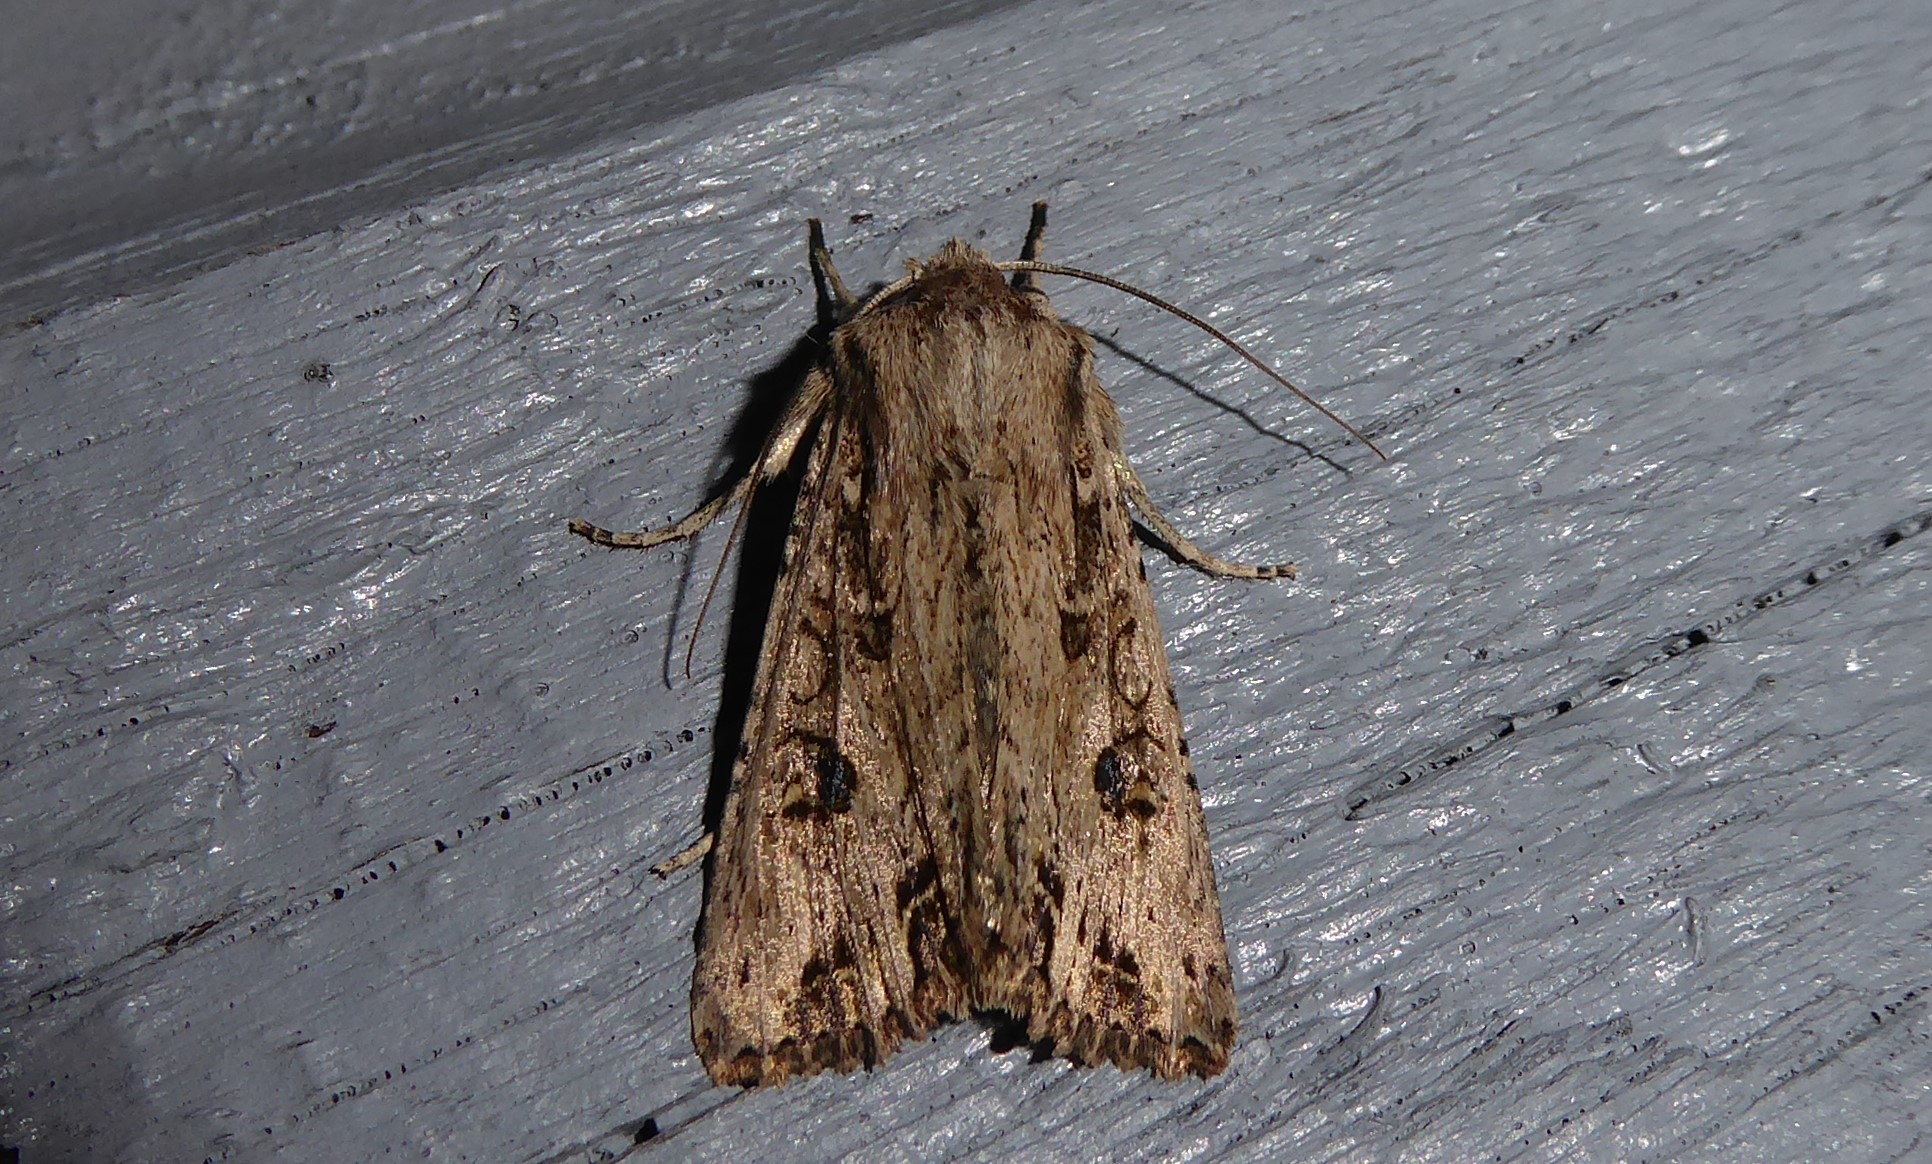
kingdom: Animalia
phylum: Arthropoda
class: Insecta
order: Lepidoptera
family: Noctuidae
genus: Ichneutica
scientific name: Ichneutica lignana
